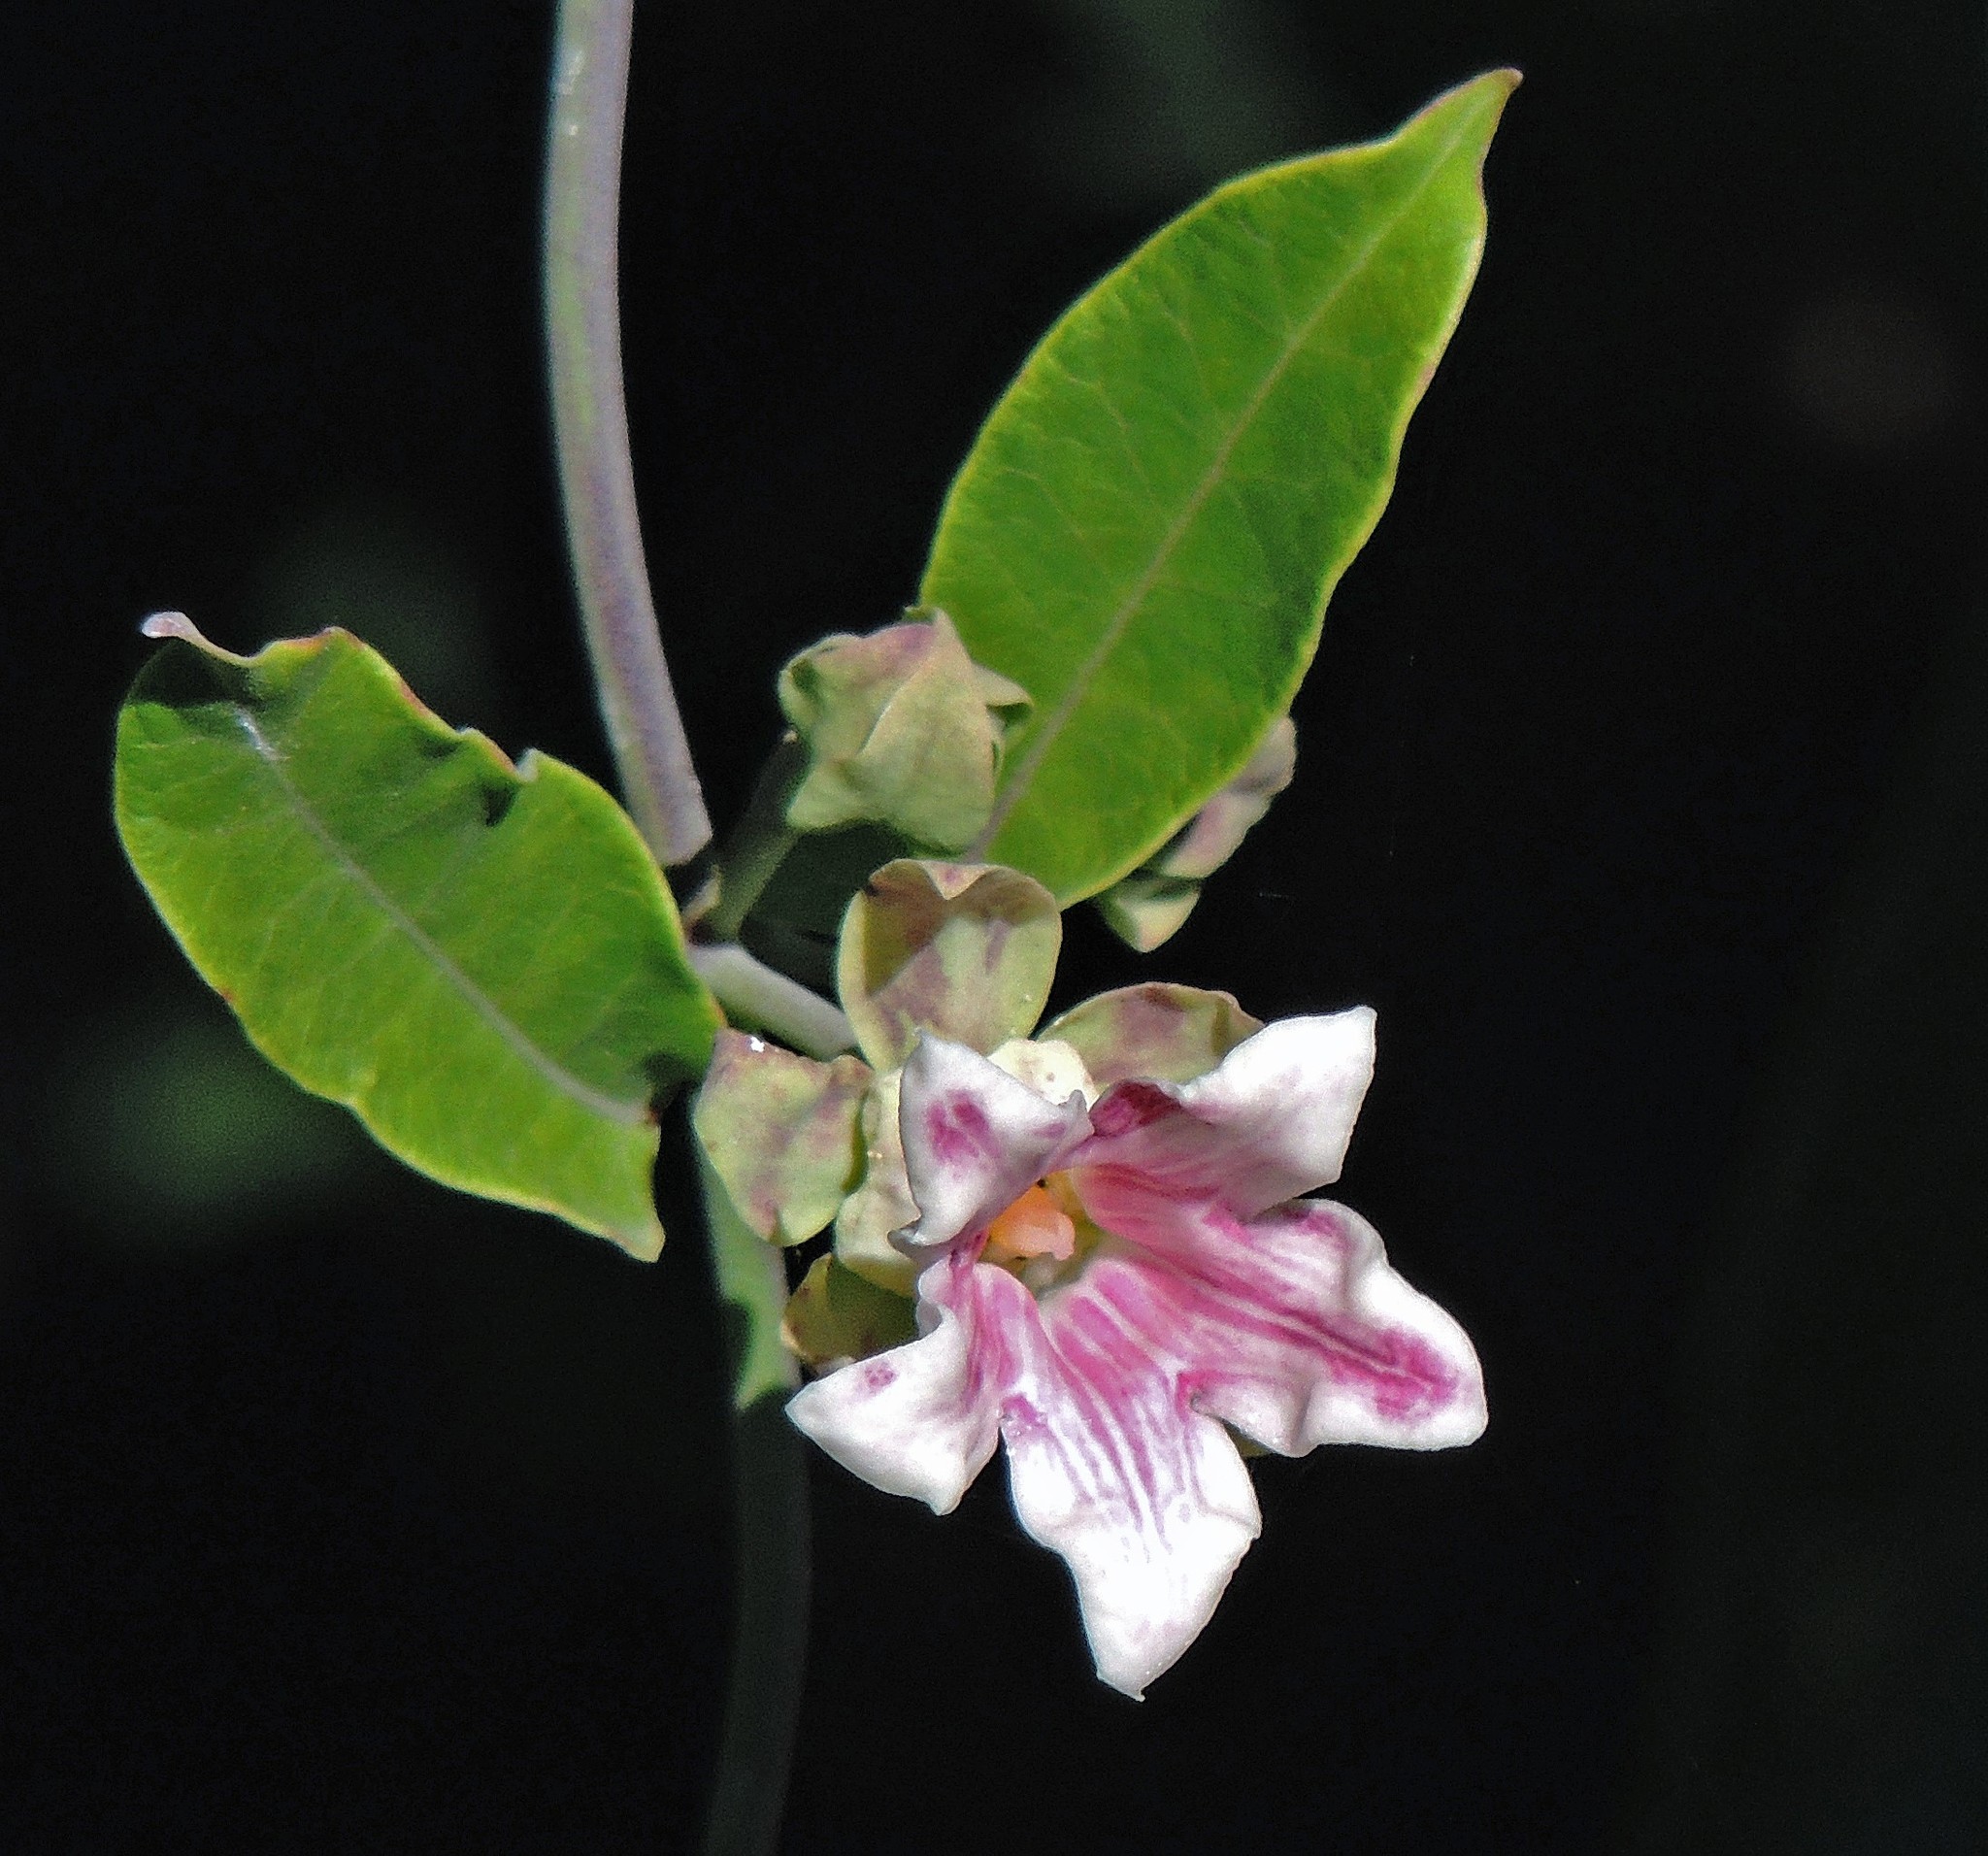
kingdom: Plantae
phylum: Tracheophyta
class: Magnoliopsida
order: Gentianales
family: Apocynaceae
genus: Araujia
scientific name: Araujia sericifera
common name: White bladderflower
